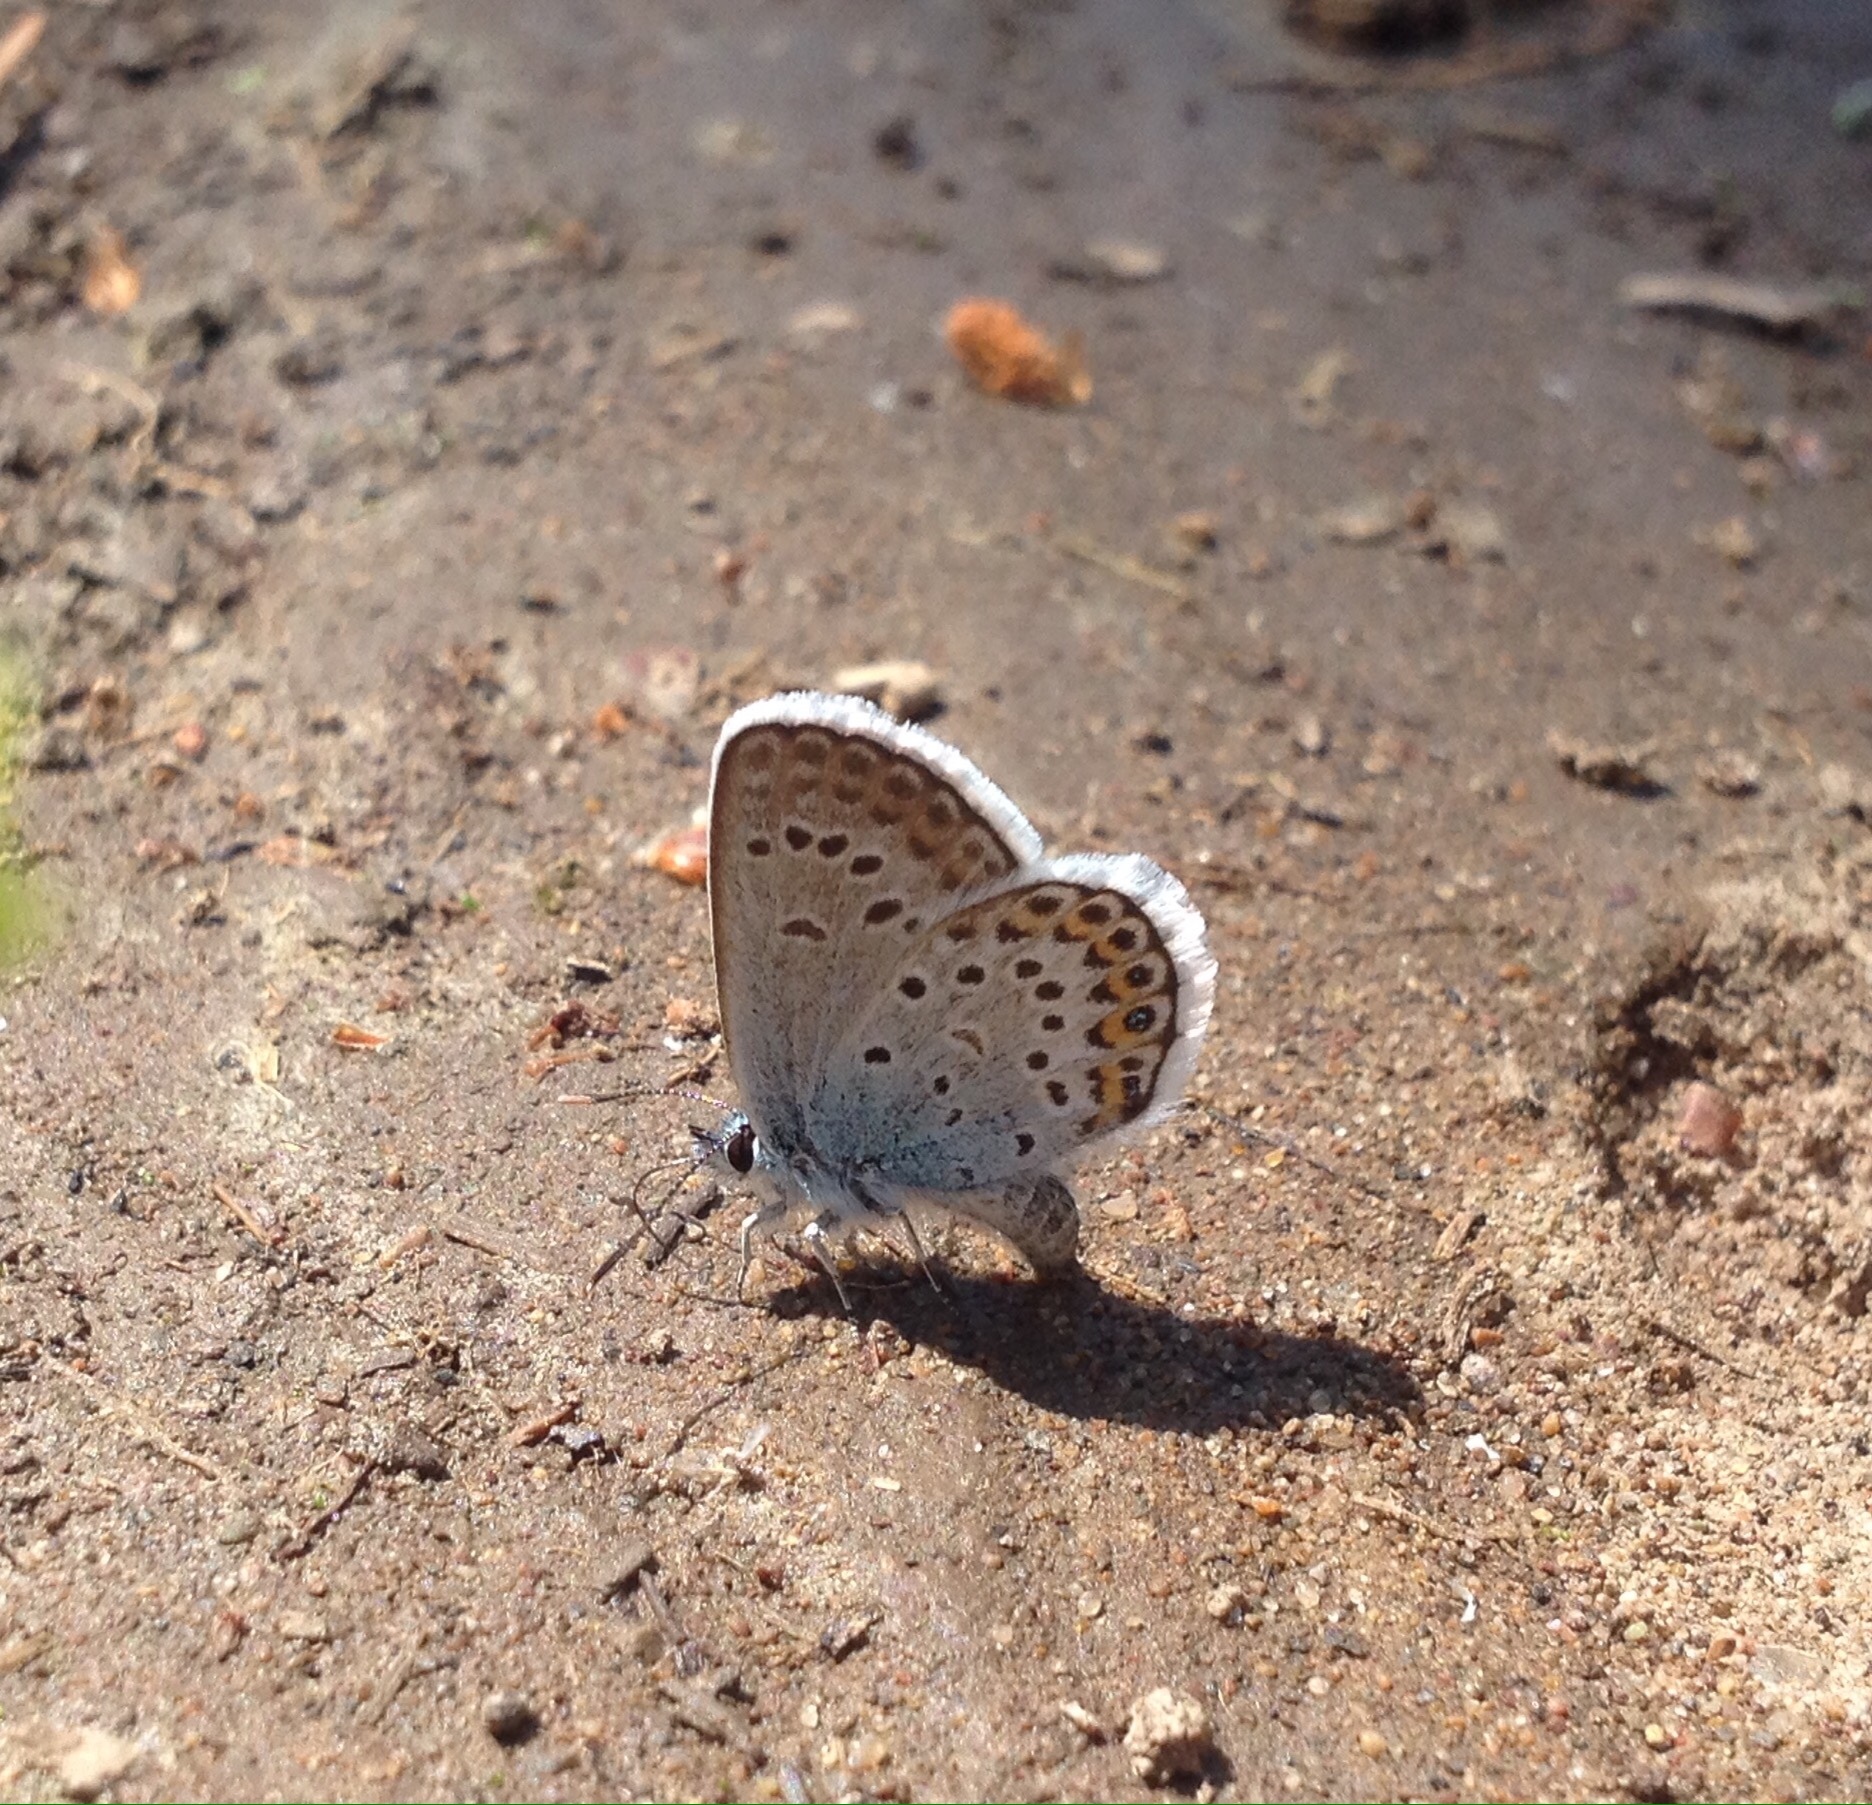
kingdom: Animalia
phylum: Arthropoda
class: Insecta
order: Lepidoptera
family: Lycaenidae
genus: Plebejus
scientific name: Plebejus argus
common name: Silver-studded blue
